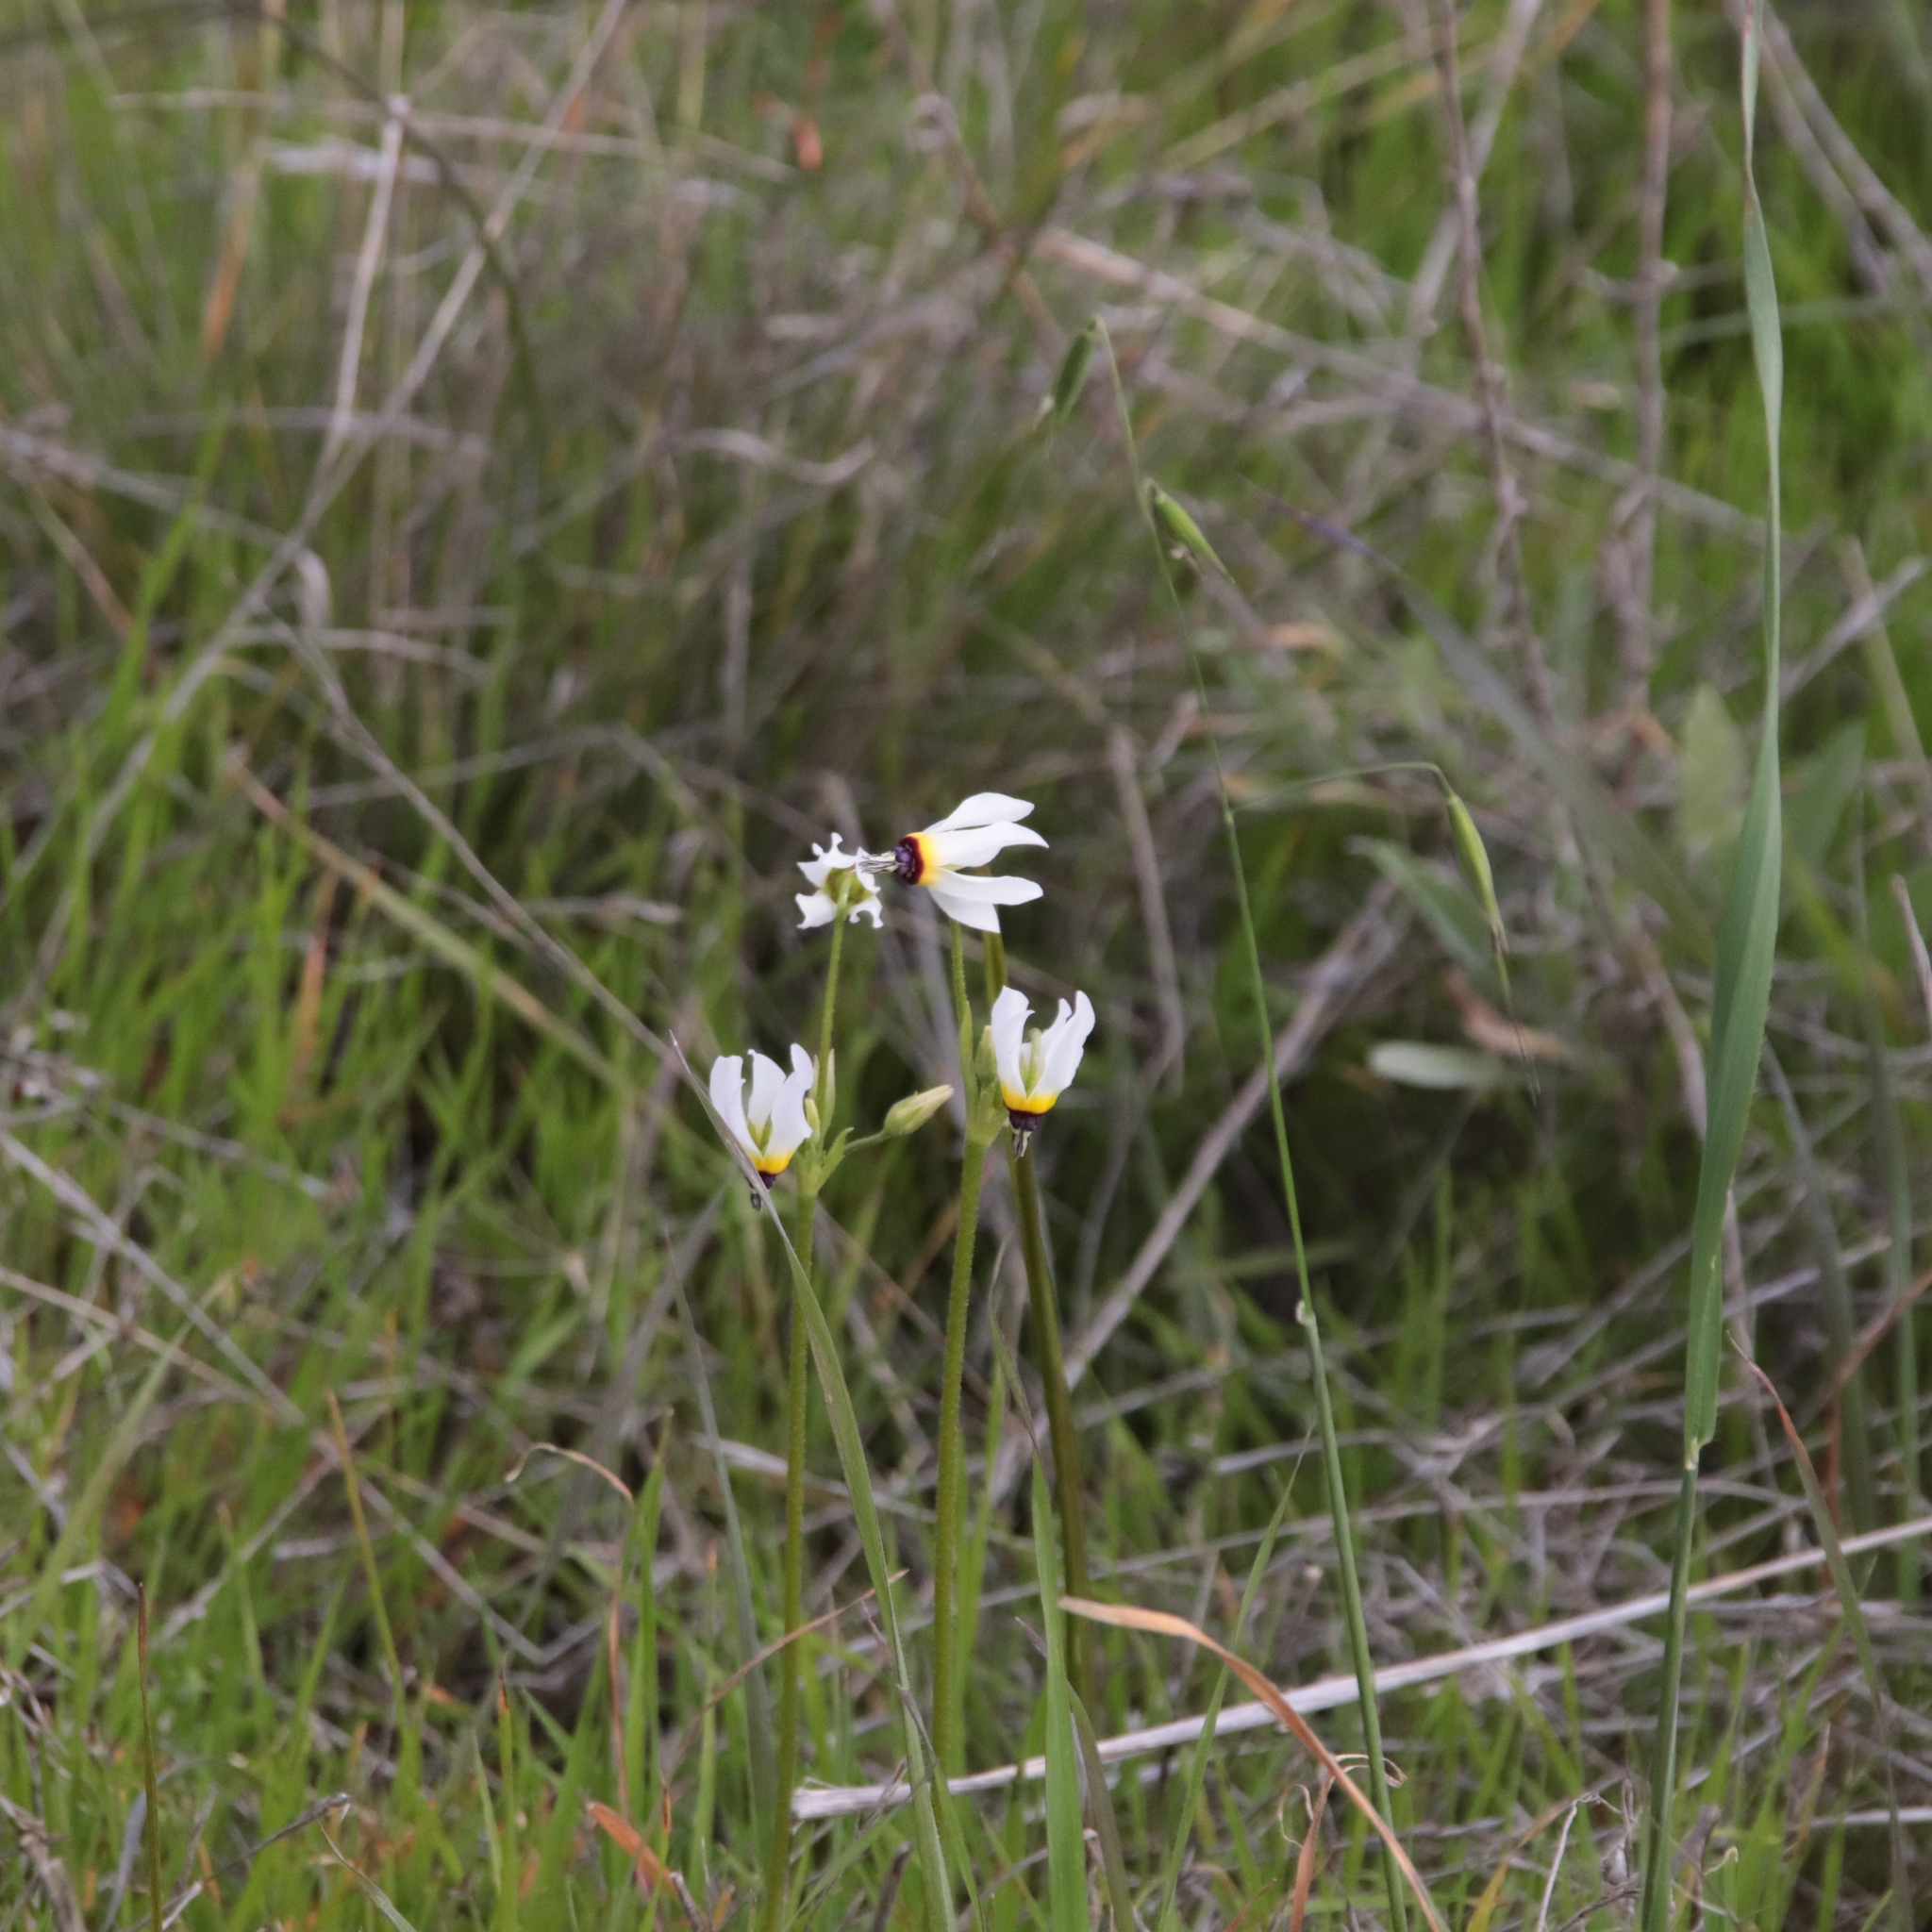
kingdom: Plantae
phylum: Tracheophyta
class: Magnoliopsida
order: Ericales
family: Primulaceae
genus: Dodecatheon
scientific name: Dodecatheon clevelandii
